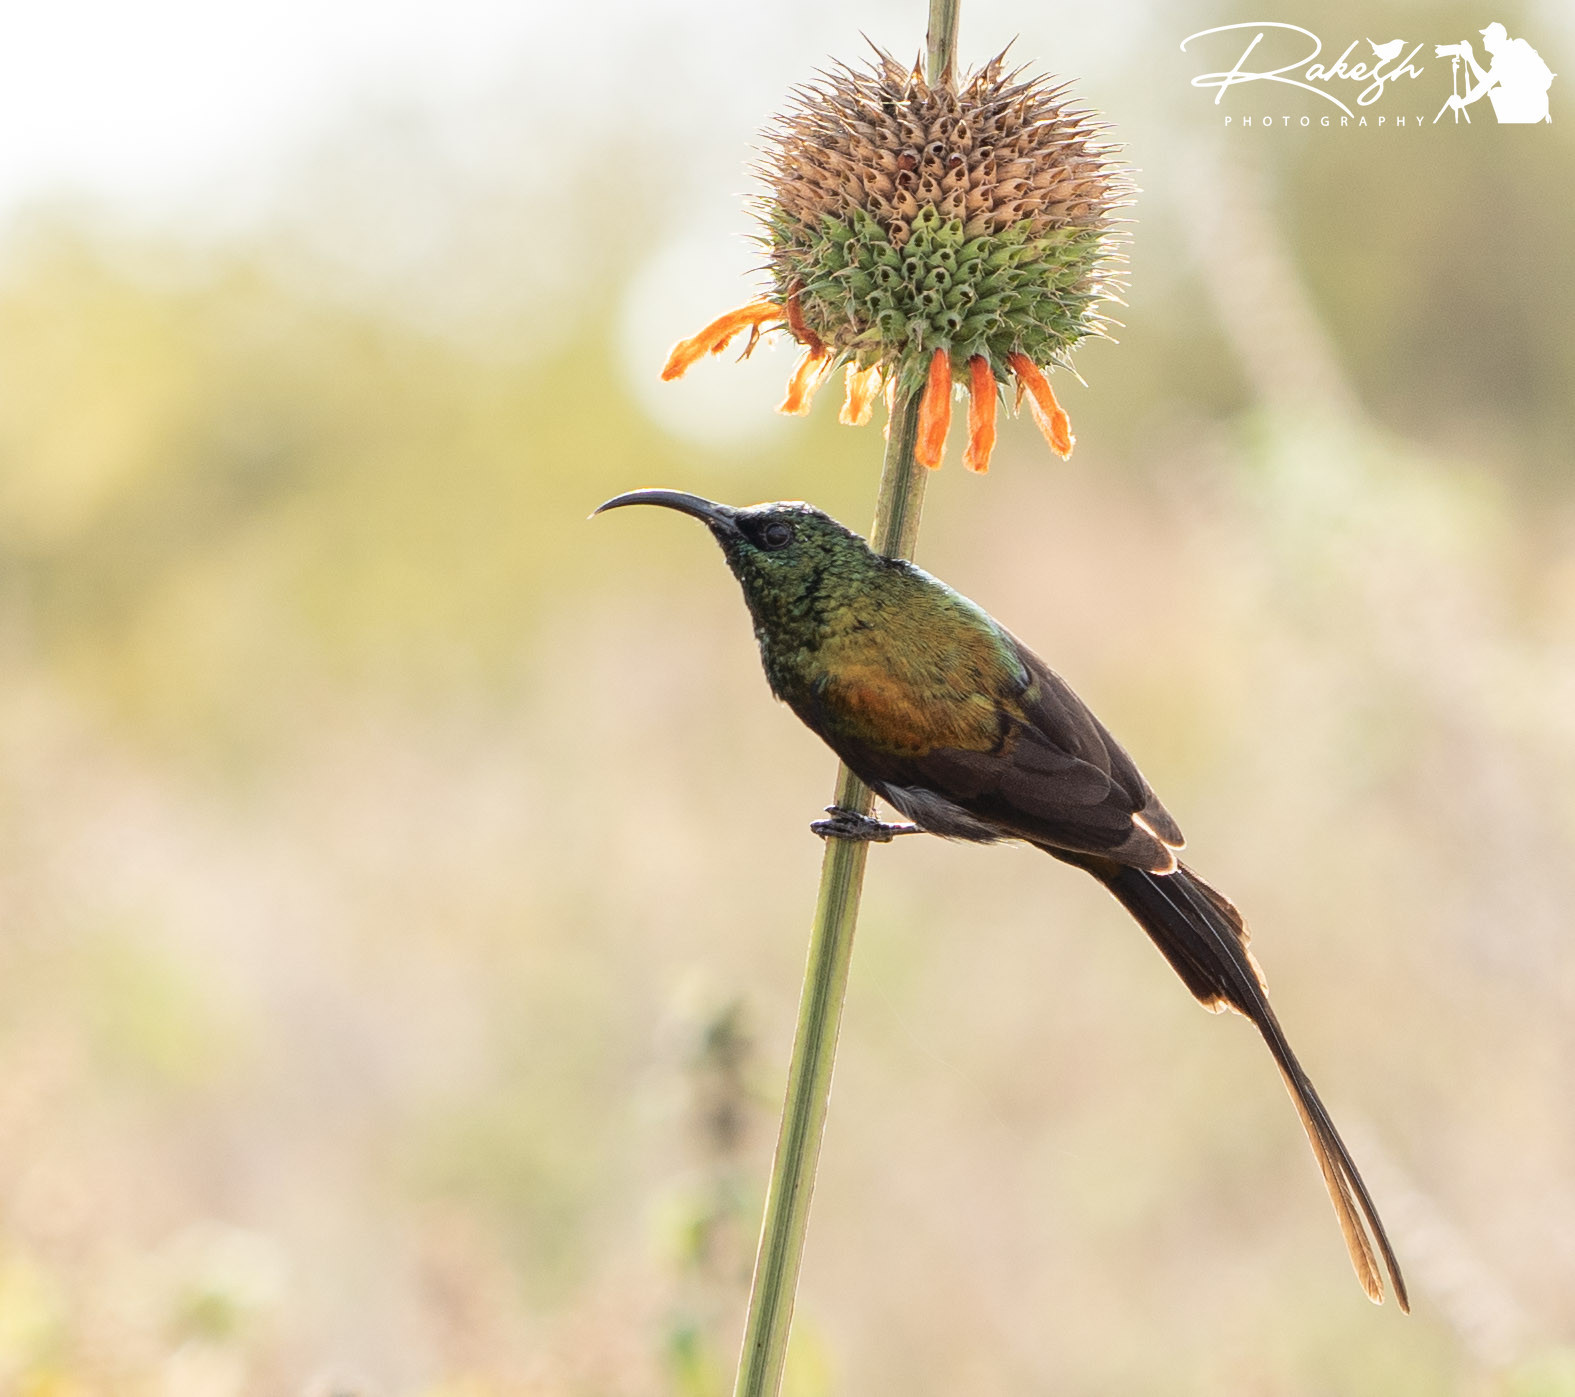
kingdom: Animalia
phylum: Chordata
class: Aves
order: Passeriformes
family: Nectariniidae
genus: Nectarinia
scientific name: Nectarinia kilimensis
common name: Bronzy sunbird
